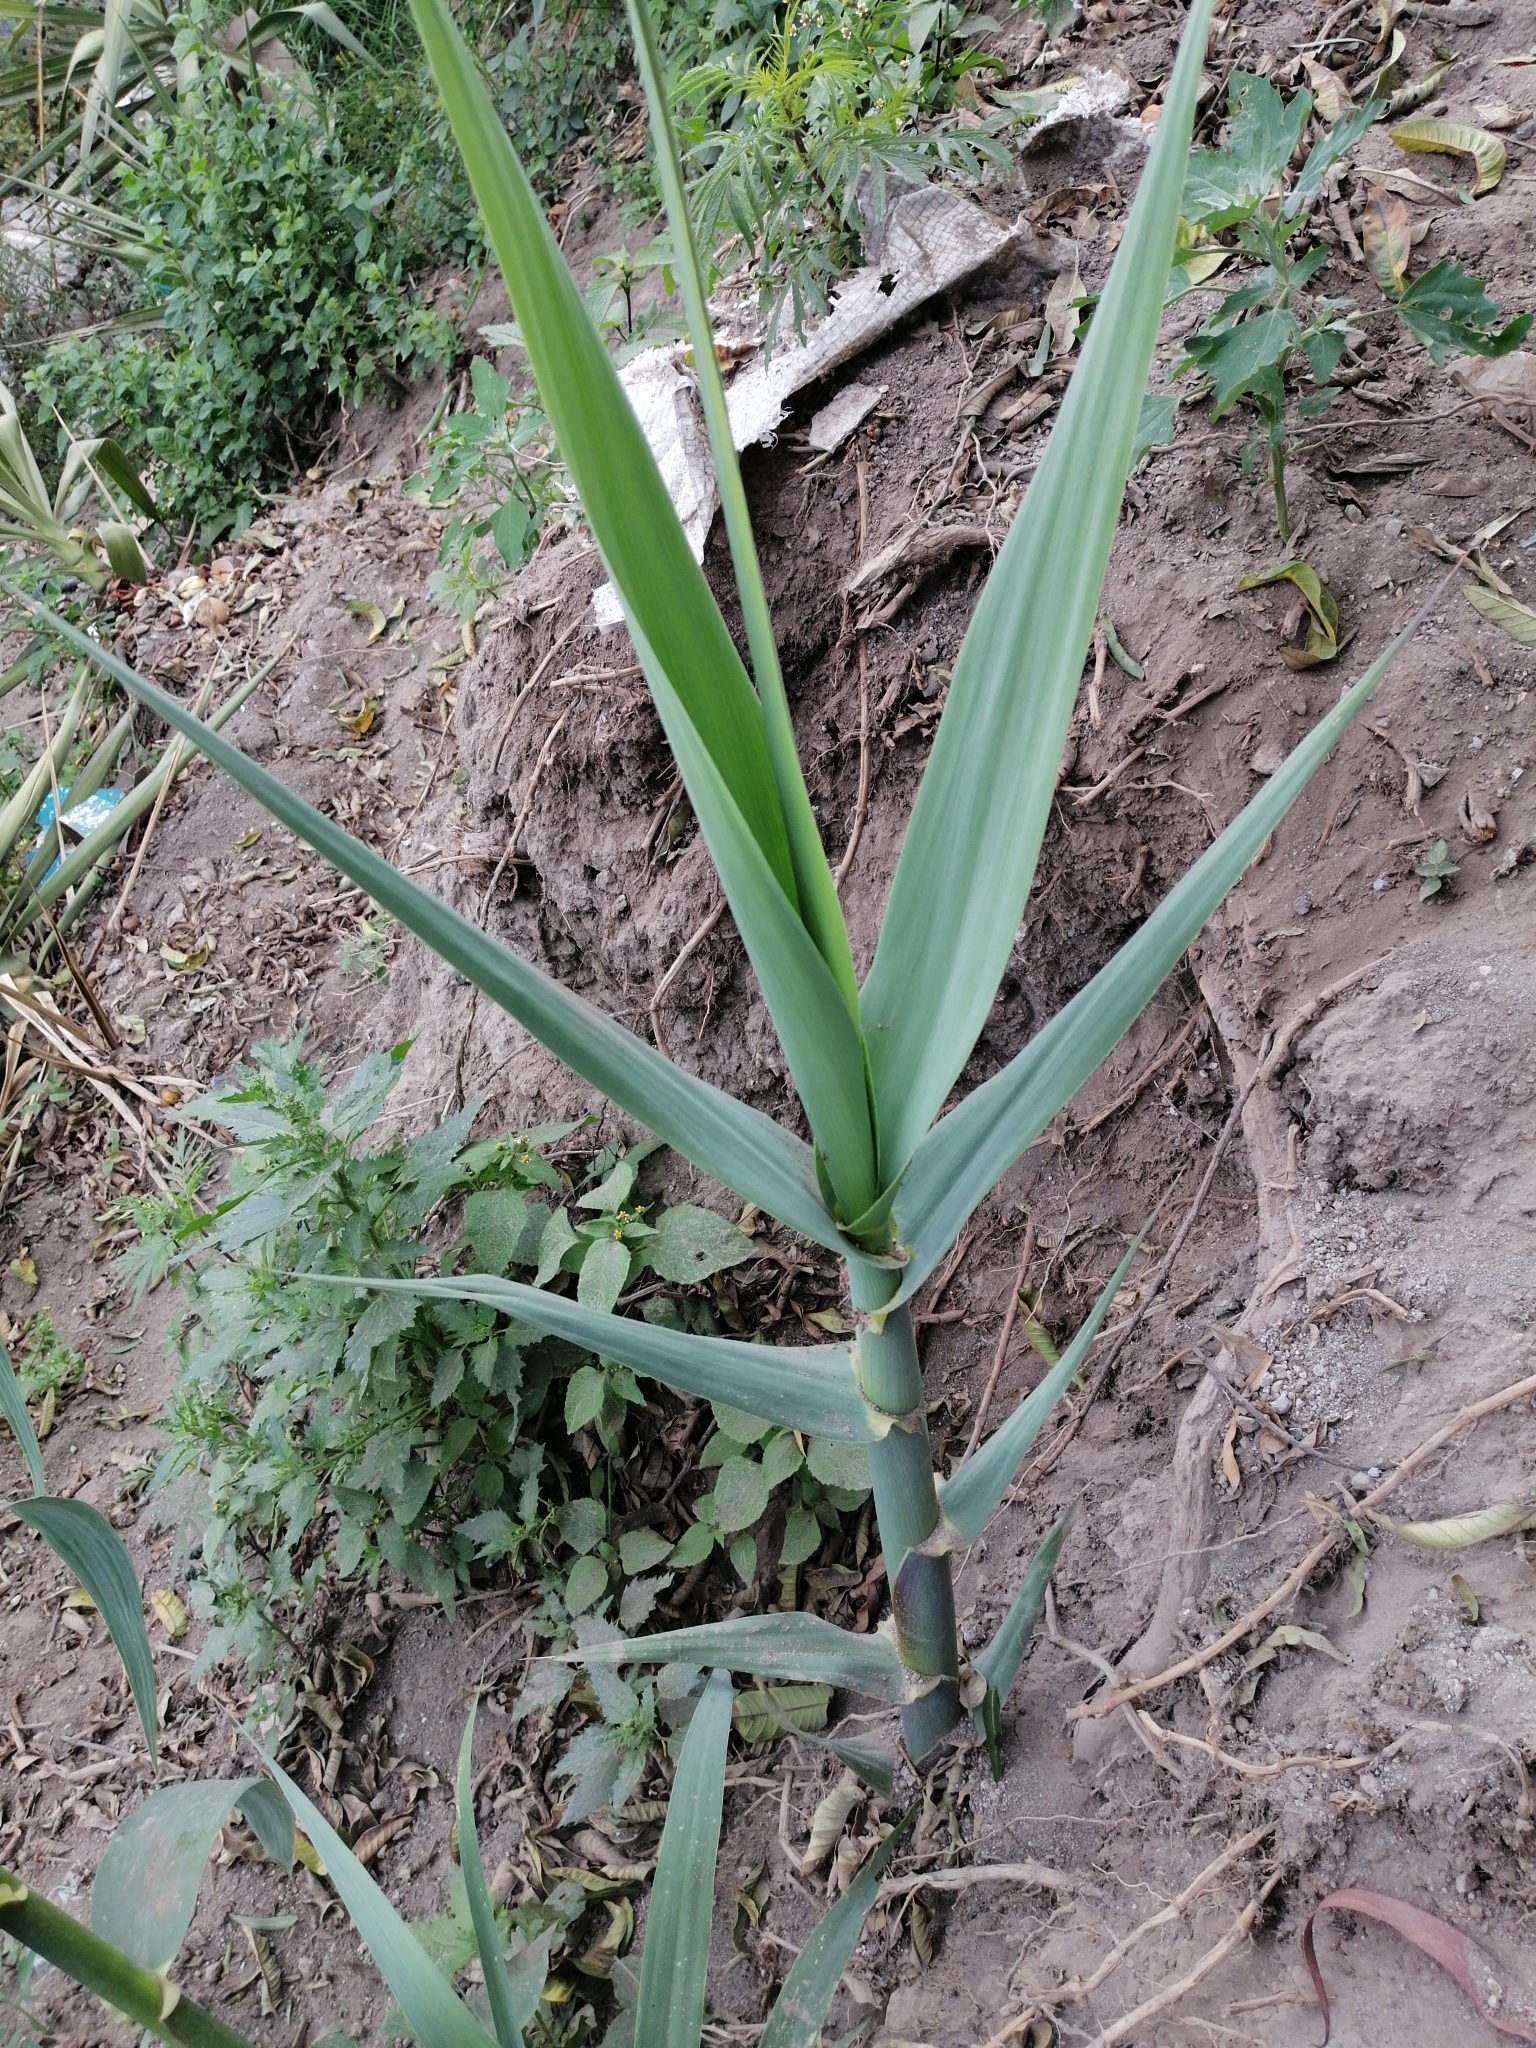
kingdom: Plantae
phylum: Tracheophyta
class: Liliopsida
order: Poales
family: Poaceae
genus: Arundo
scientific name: Arundo donax
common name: Giant reed
